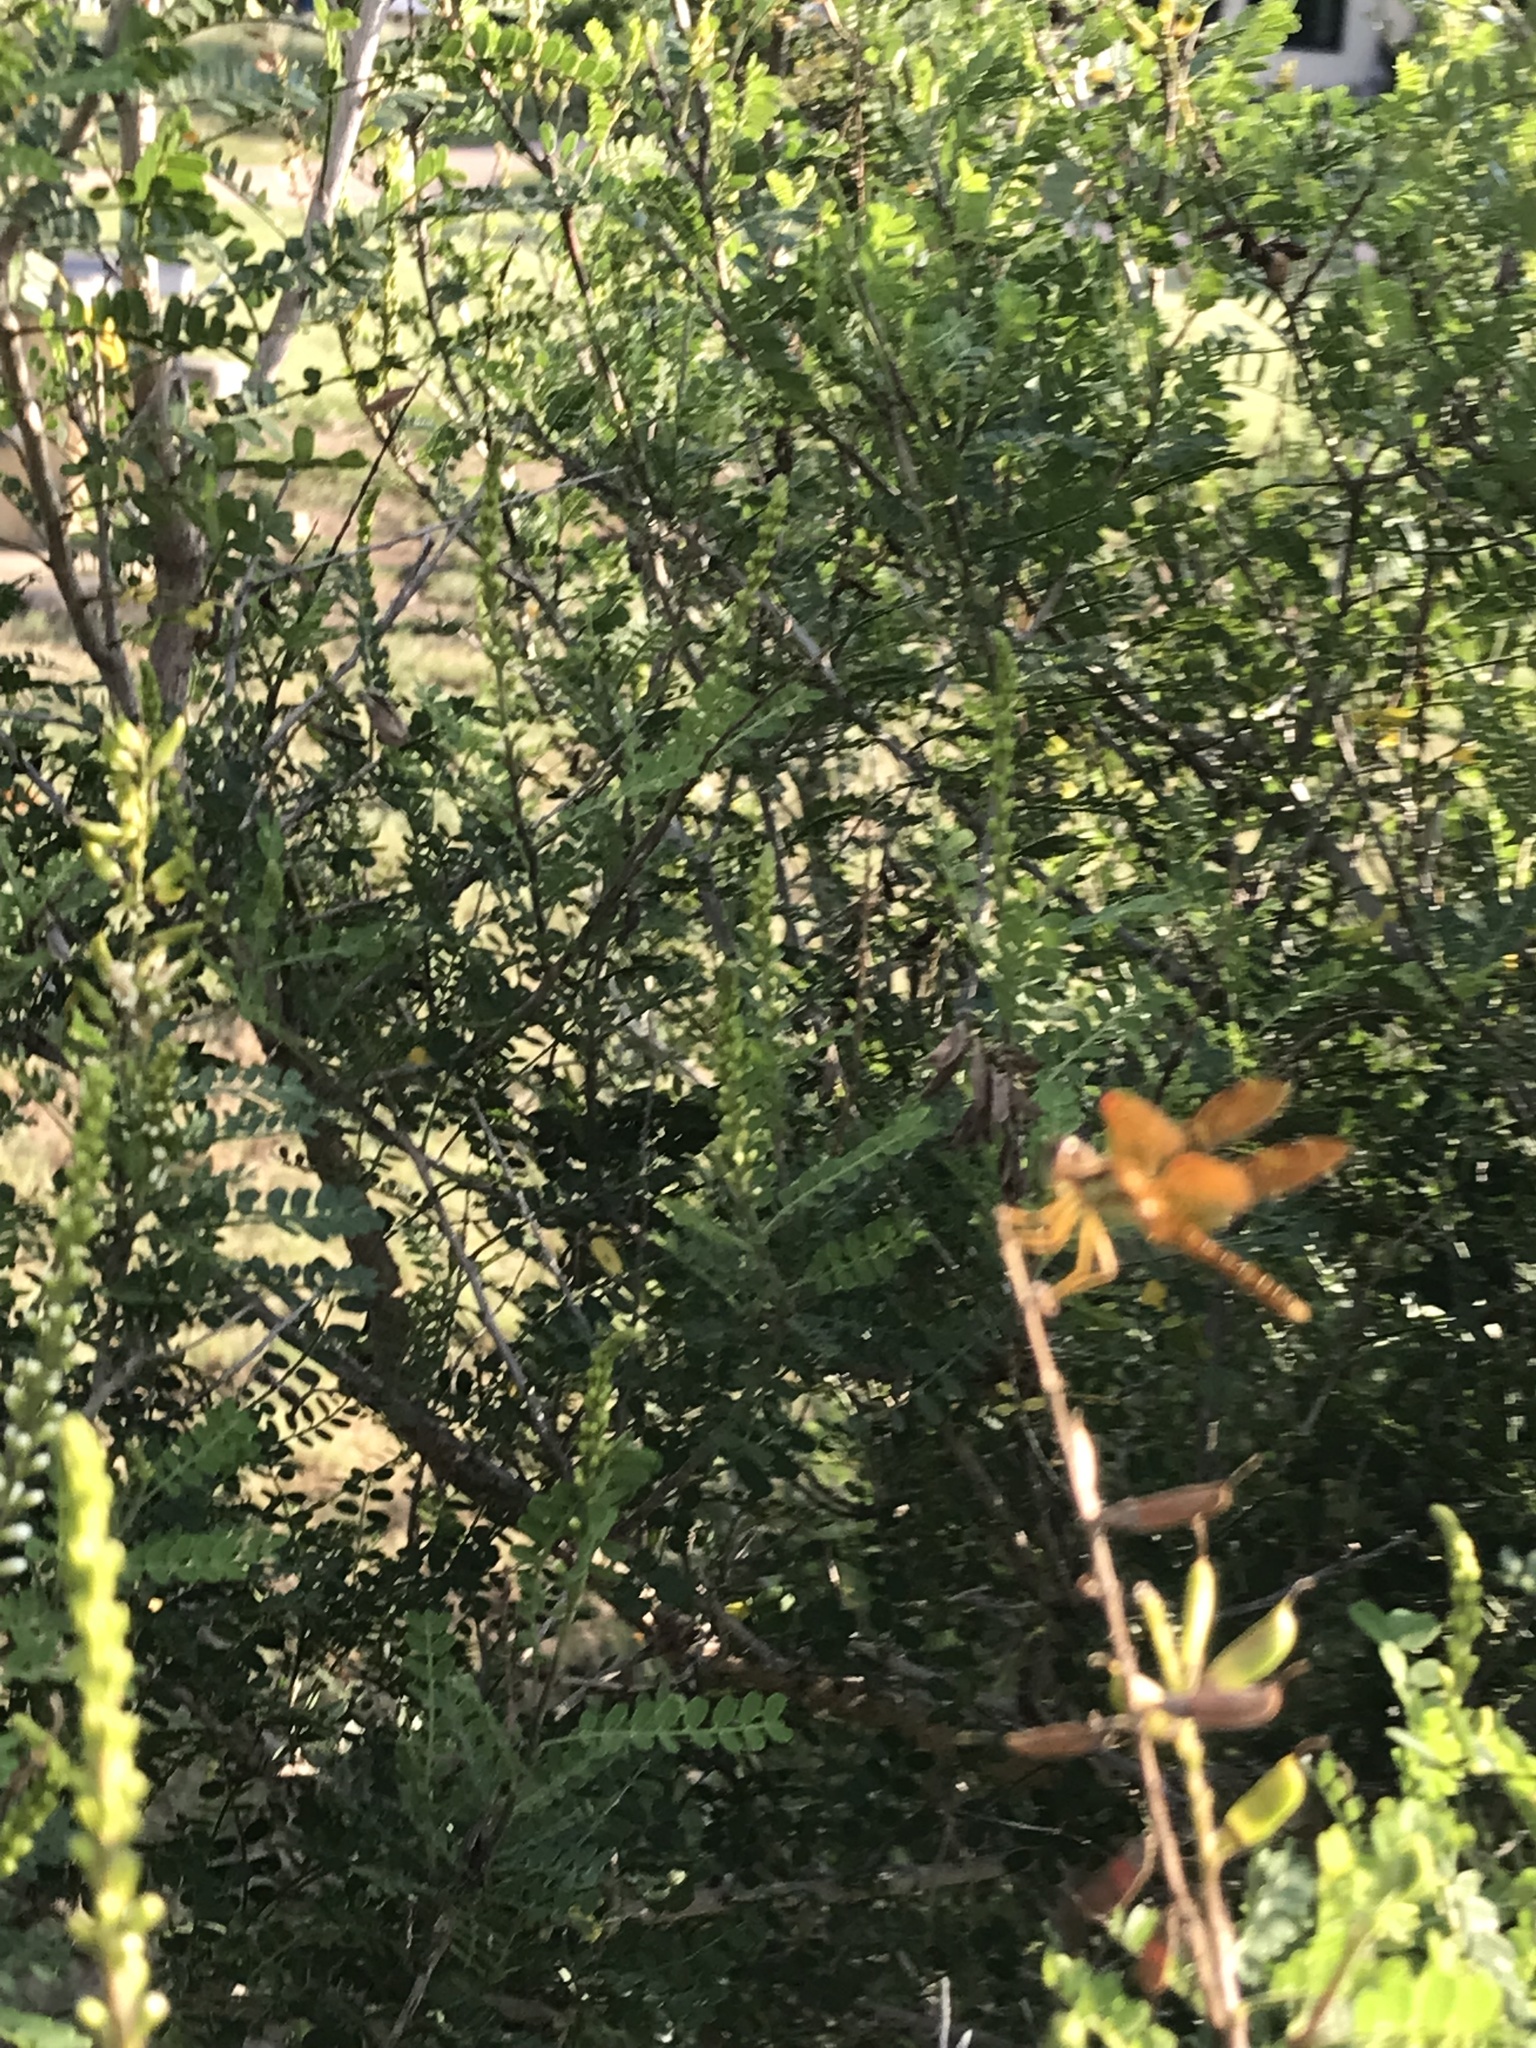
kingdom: Animalia
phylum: Arthropoda
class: Insecta
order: Odonata
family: Libellulidae
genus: Perithemis
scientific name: Perithemis tenera
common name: Eastern amberwing
